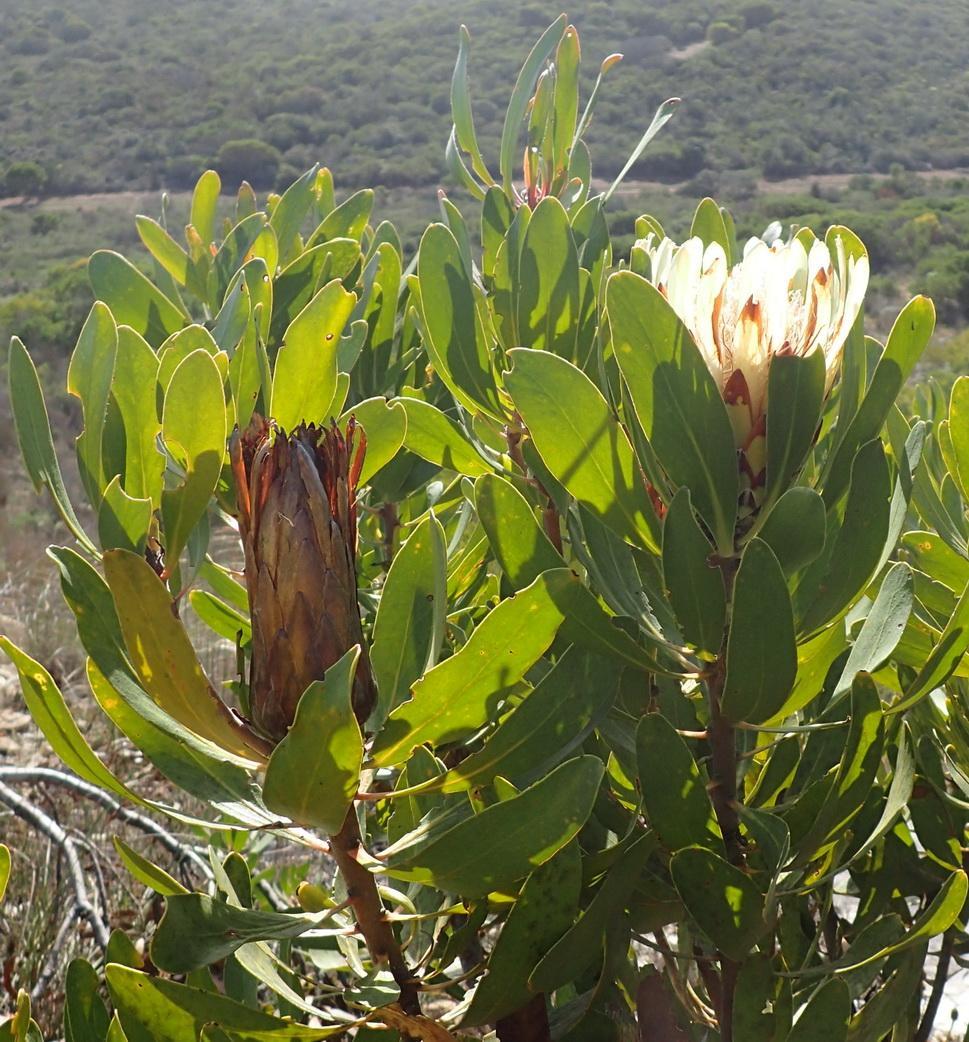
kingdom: Plantae
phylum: Tracheophyta
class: Magnoliopsida
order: Proteales
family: Proteaceae
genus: Protea
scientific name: Protea obtusifolia
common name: Bredasdorp sugarbush
